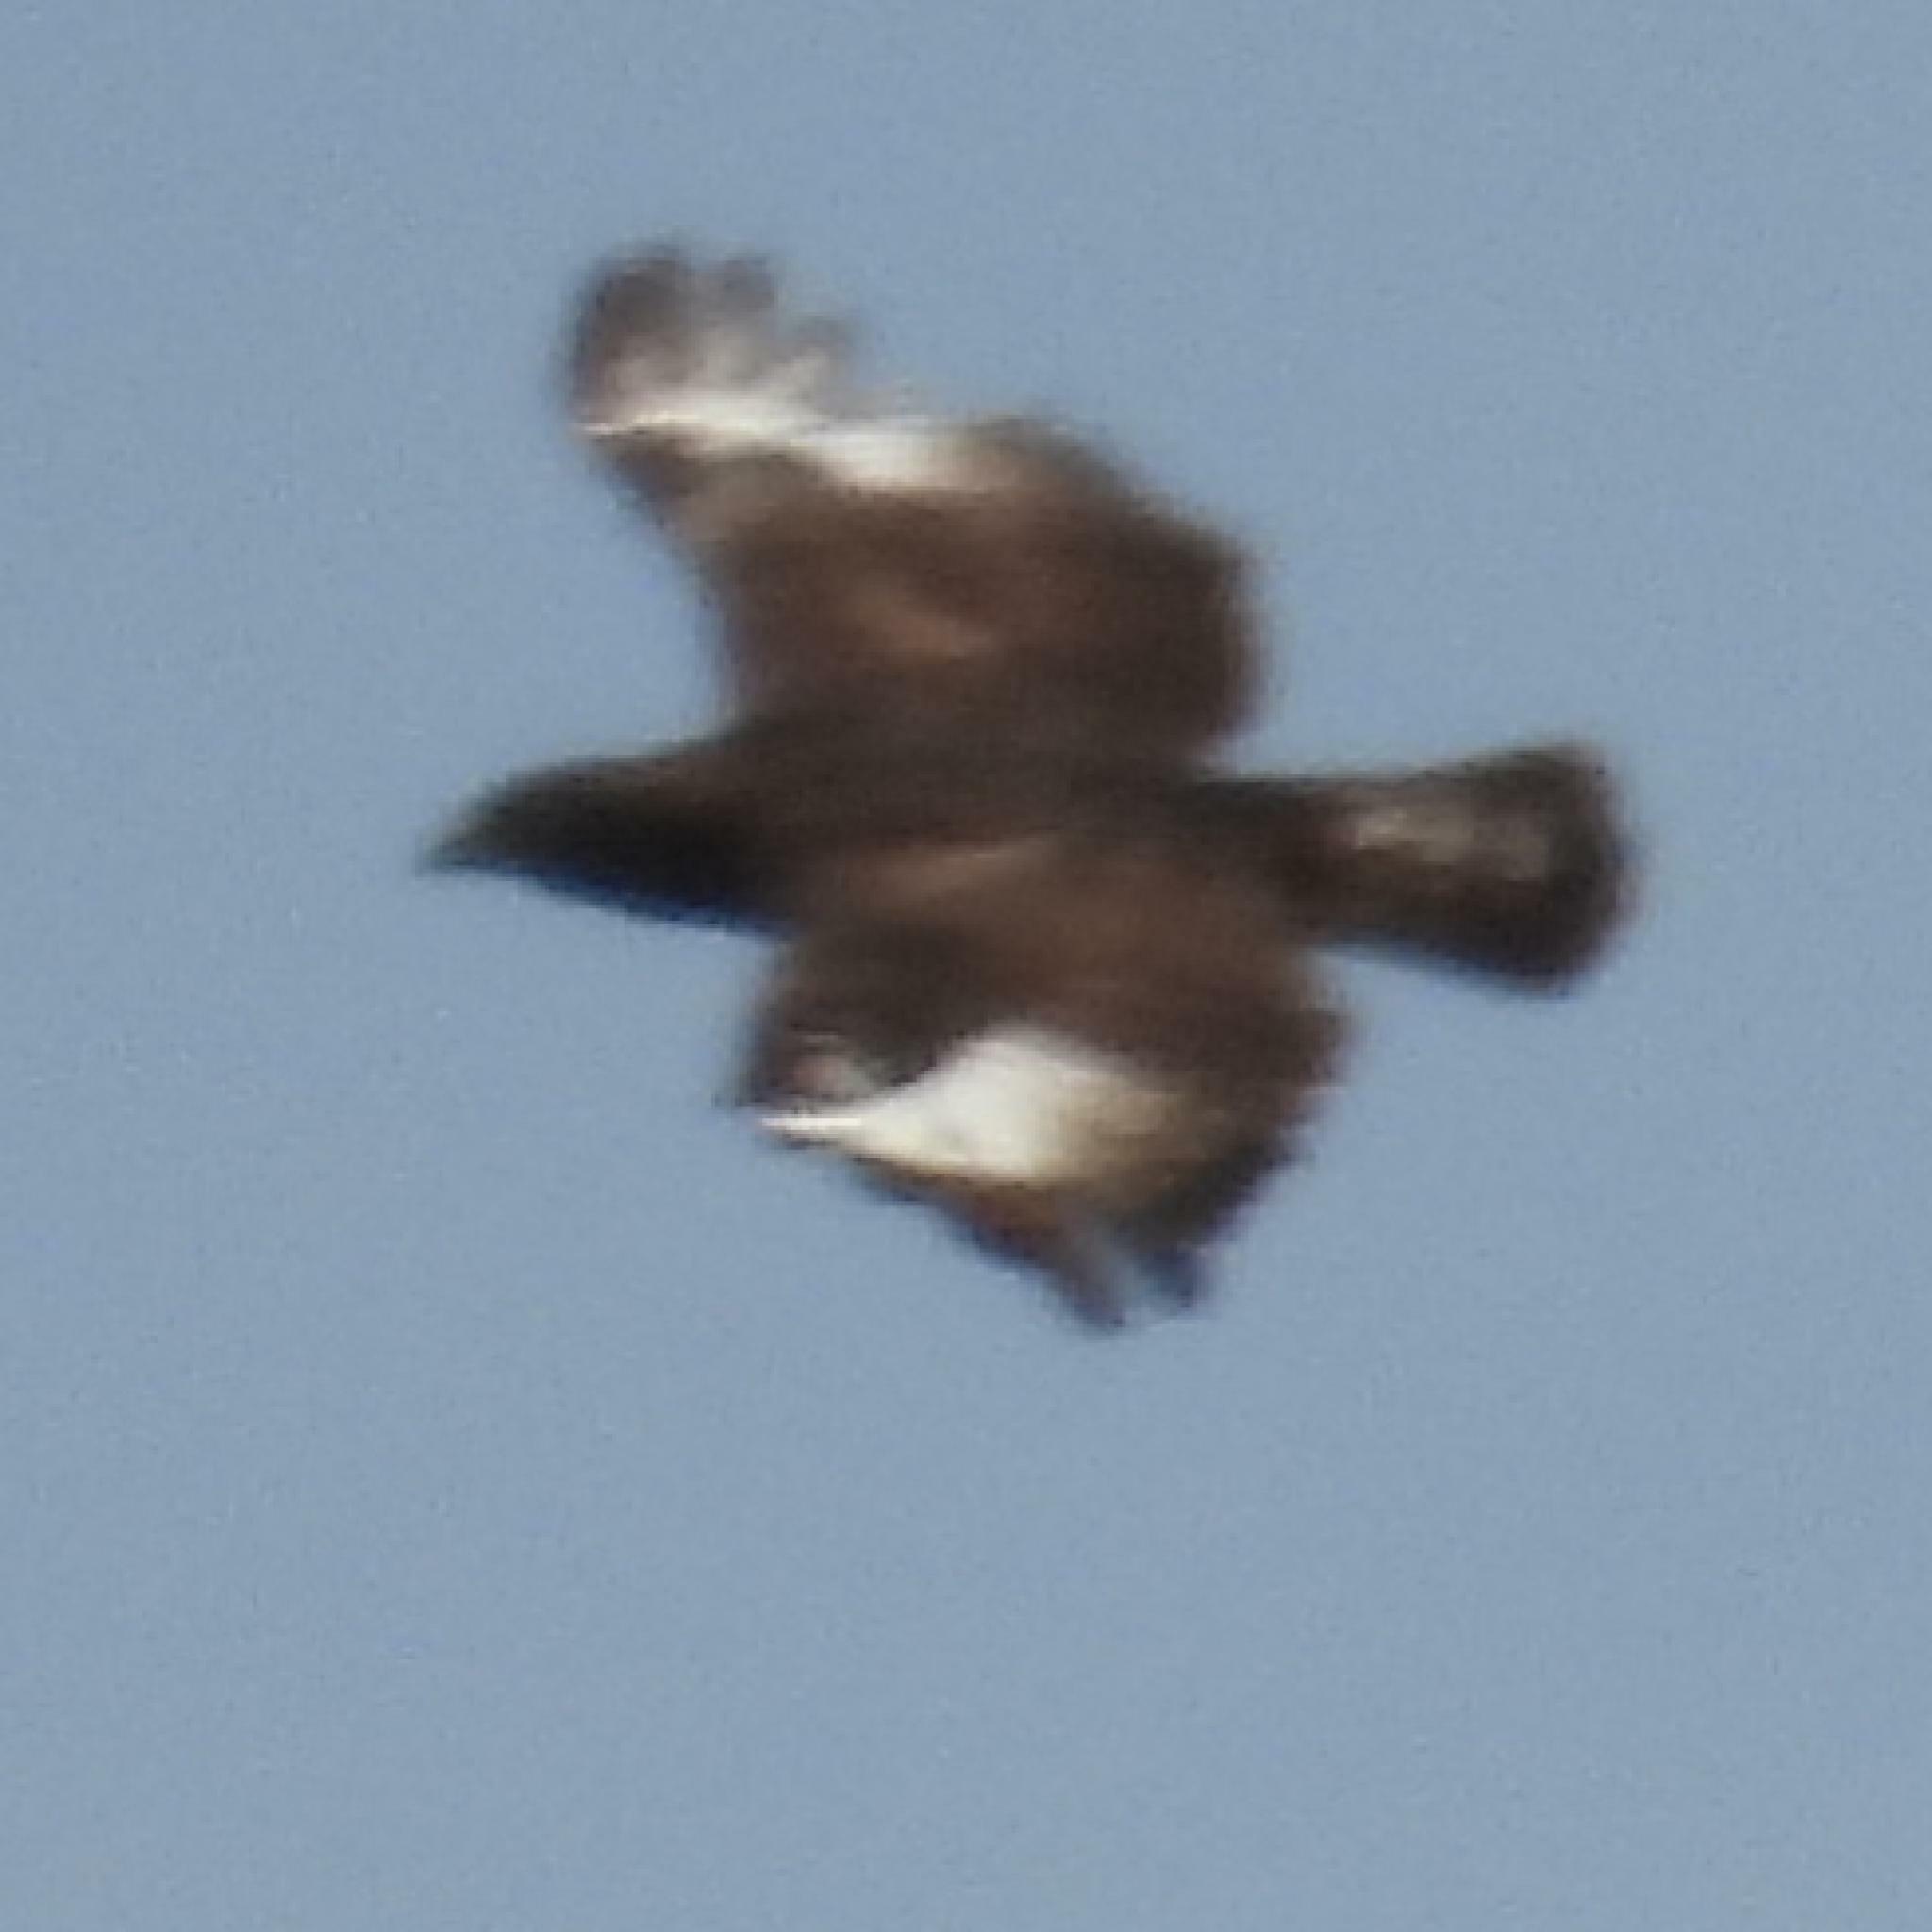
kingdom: Animalia
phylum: Chordata
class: Aves
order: Accipitriformes
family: Accipitridae
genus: Lophaetus
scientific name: Lophaetus occipitalis
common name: Long-crested eagle
